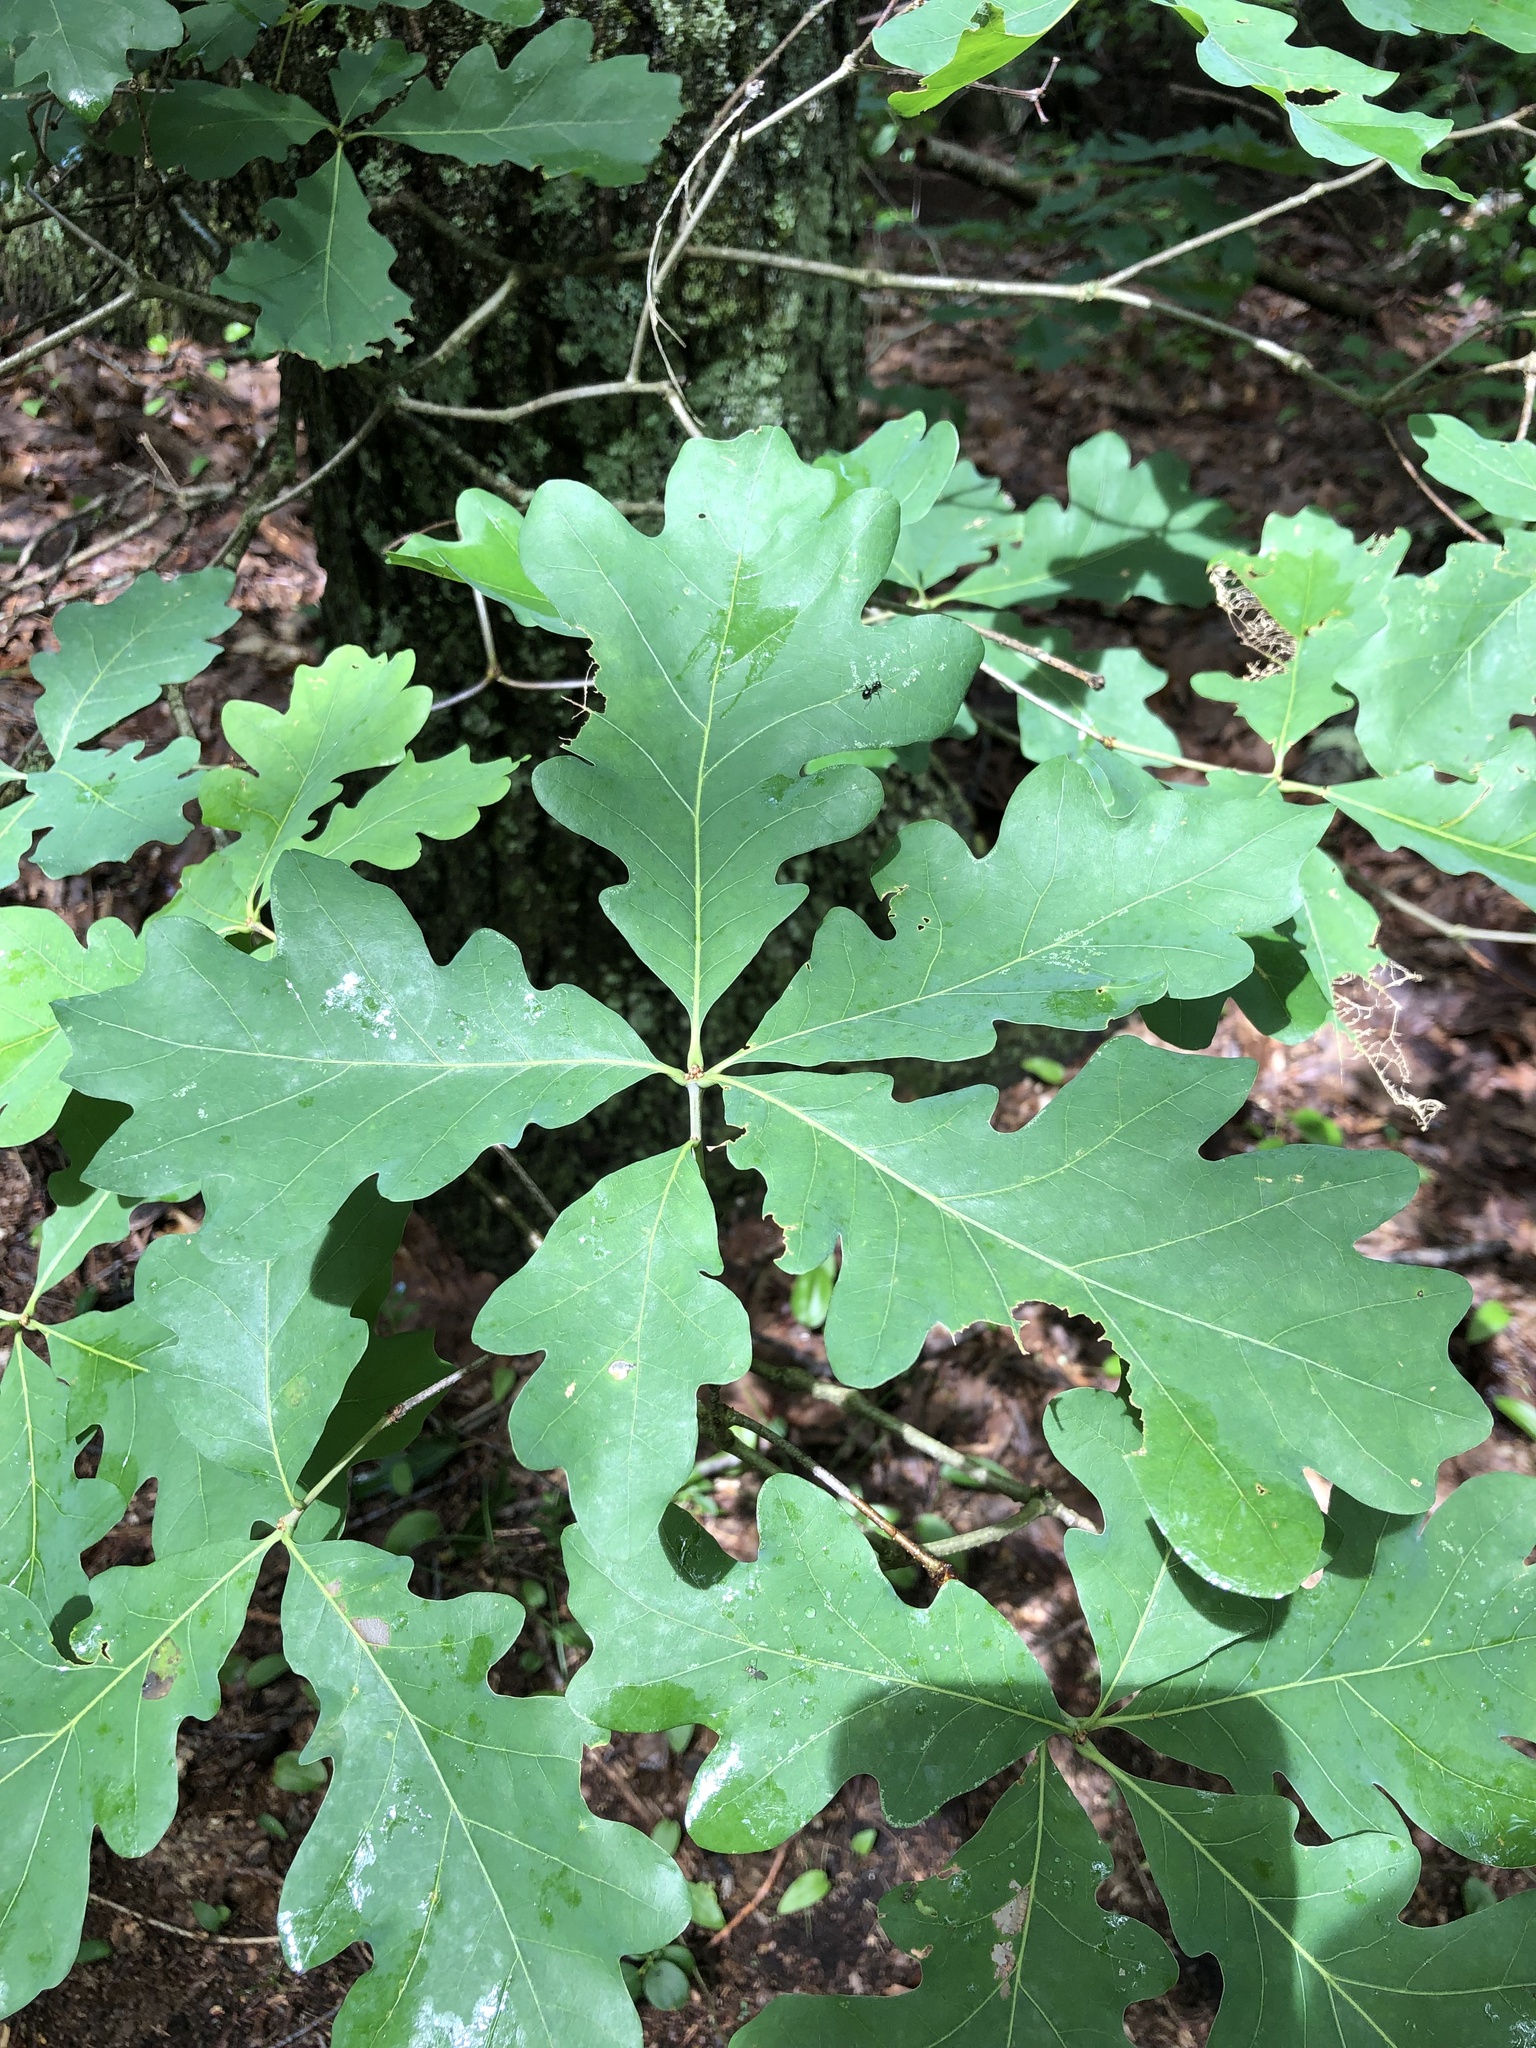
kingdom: Plantae
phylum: Tracheophyta
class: Magnoliopsida
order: Fagales
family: Fagaceae
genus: Quercus
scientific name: Quercus alba
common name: White oak
